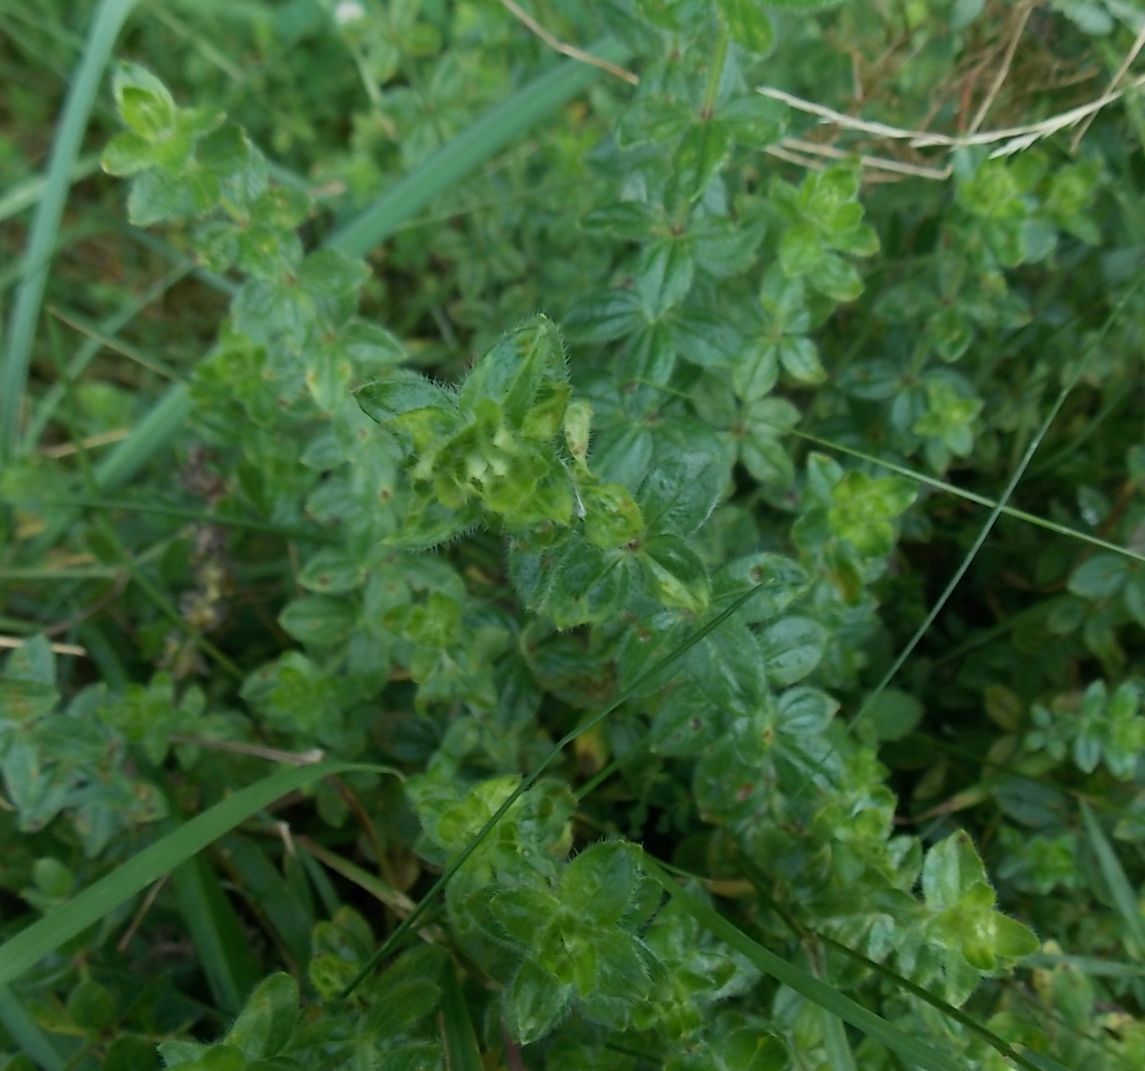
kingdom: Plantae
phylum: Tracheophyta
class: Magnoliopsida
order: Gentianales
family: Rubiaceae
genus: Cruciata
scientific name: Cruciata laevipes
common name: Crosswort
